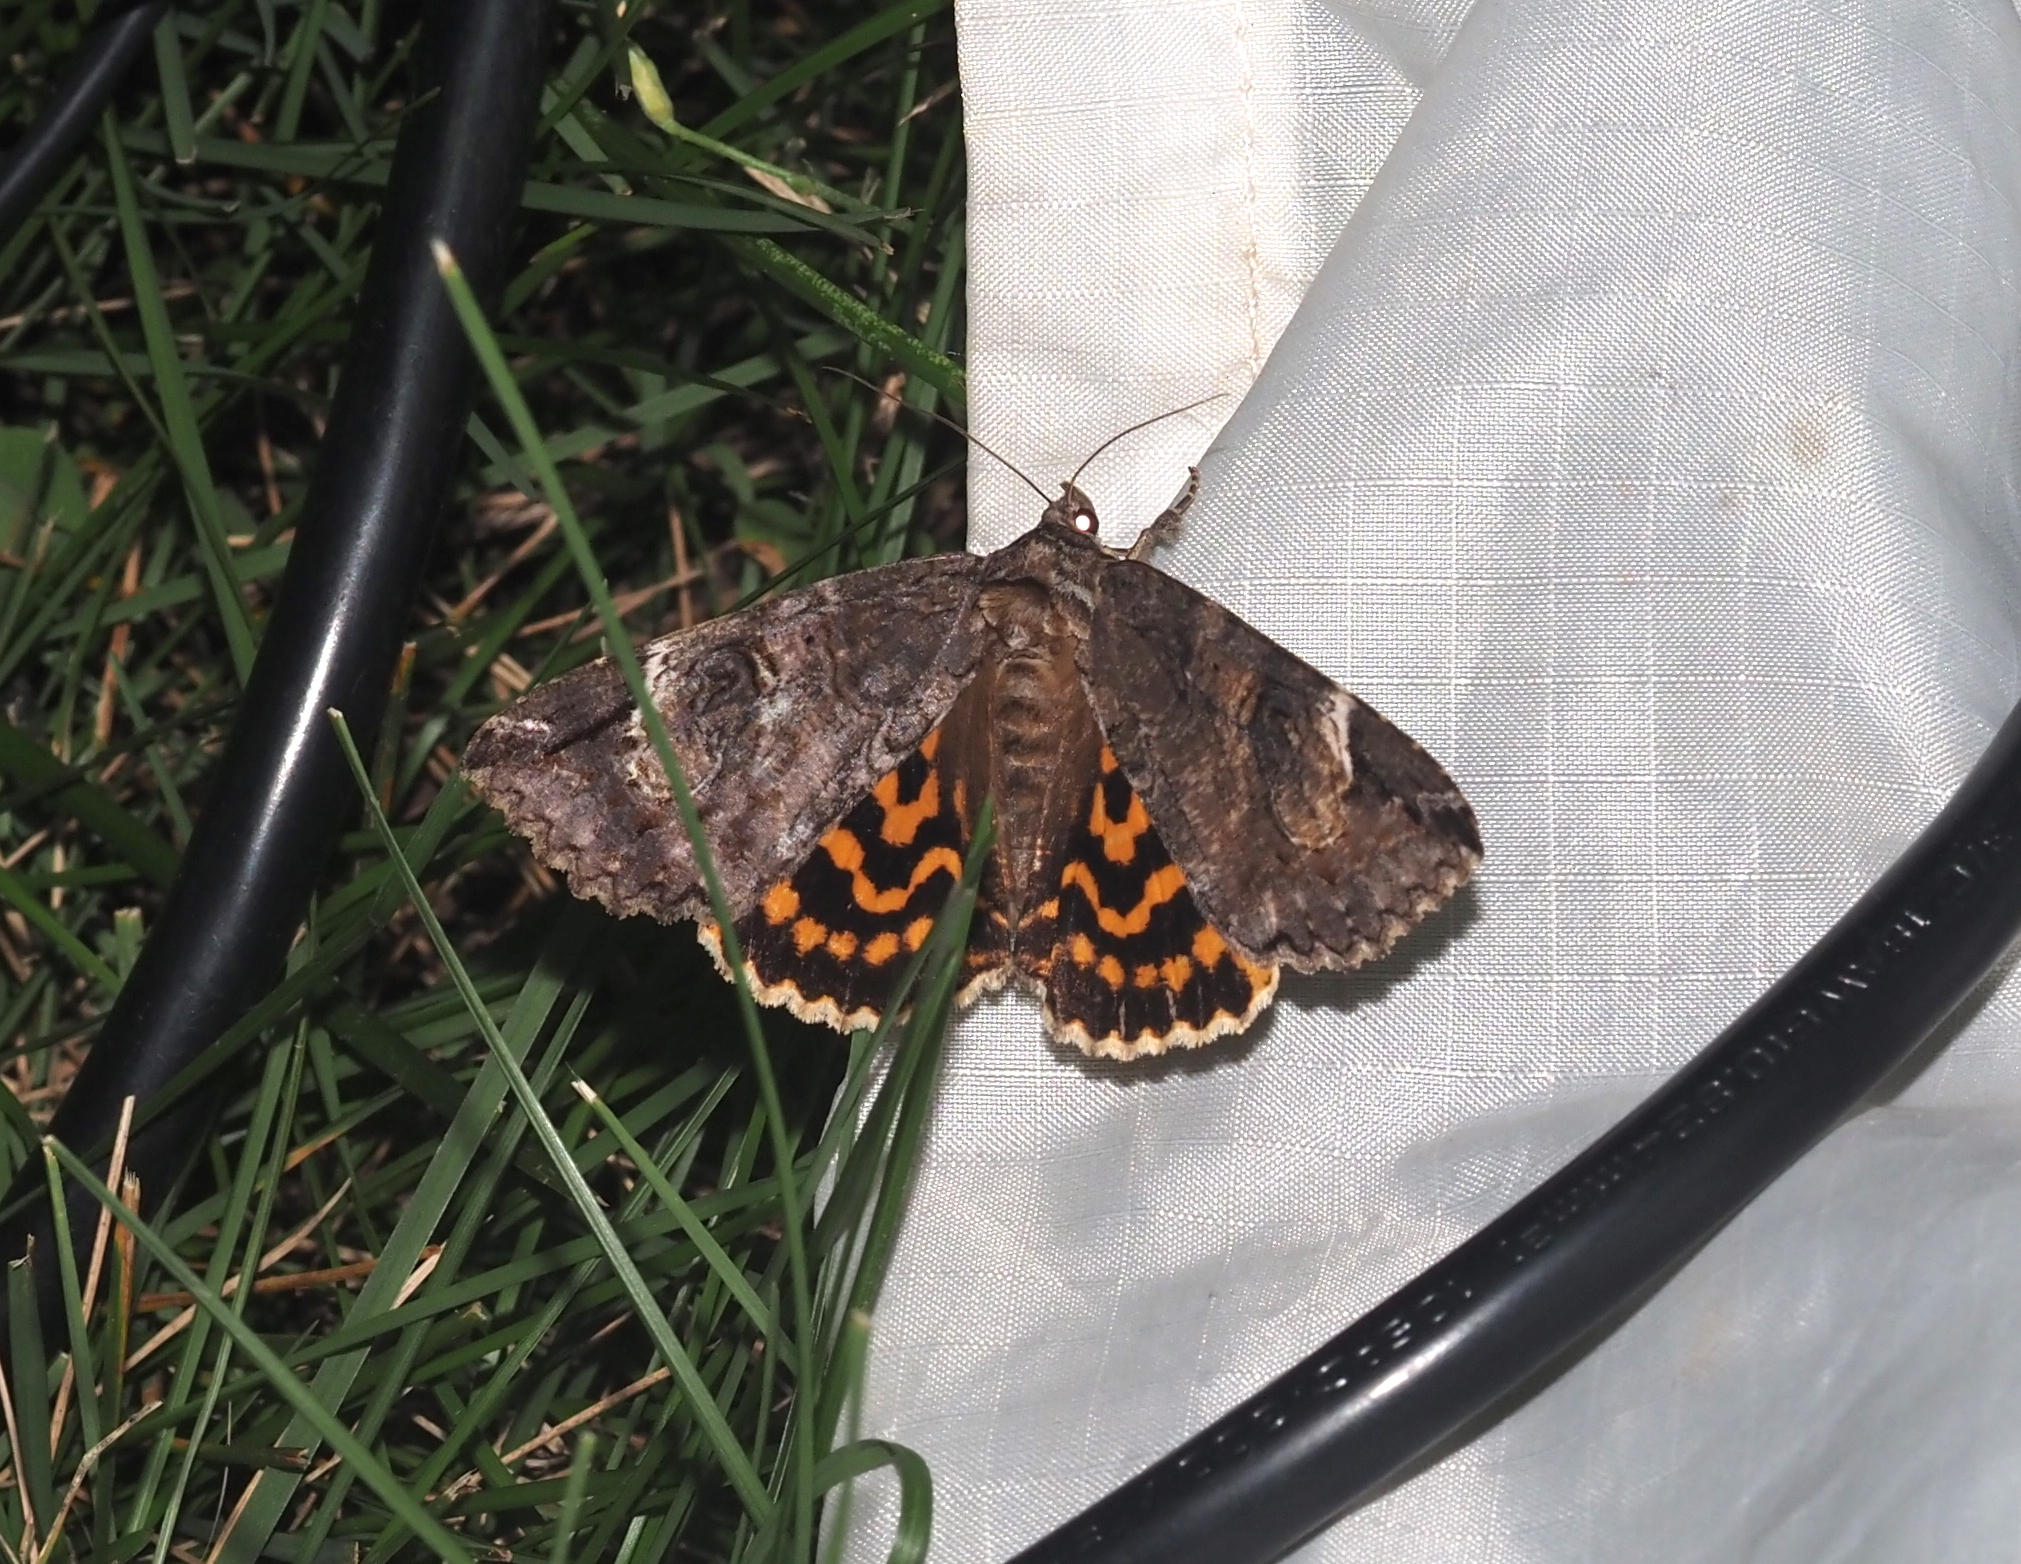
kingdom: Animalia
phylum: Arthropoda
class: Insecta
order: Lepidoptera
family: Erebidae
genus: Euparthenos
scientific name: Euparthenos nubilis
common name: Locust underwing
